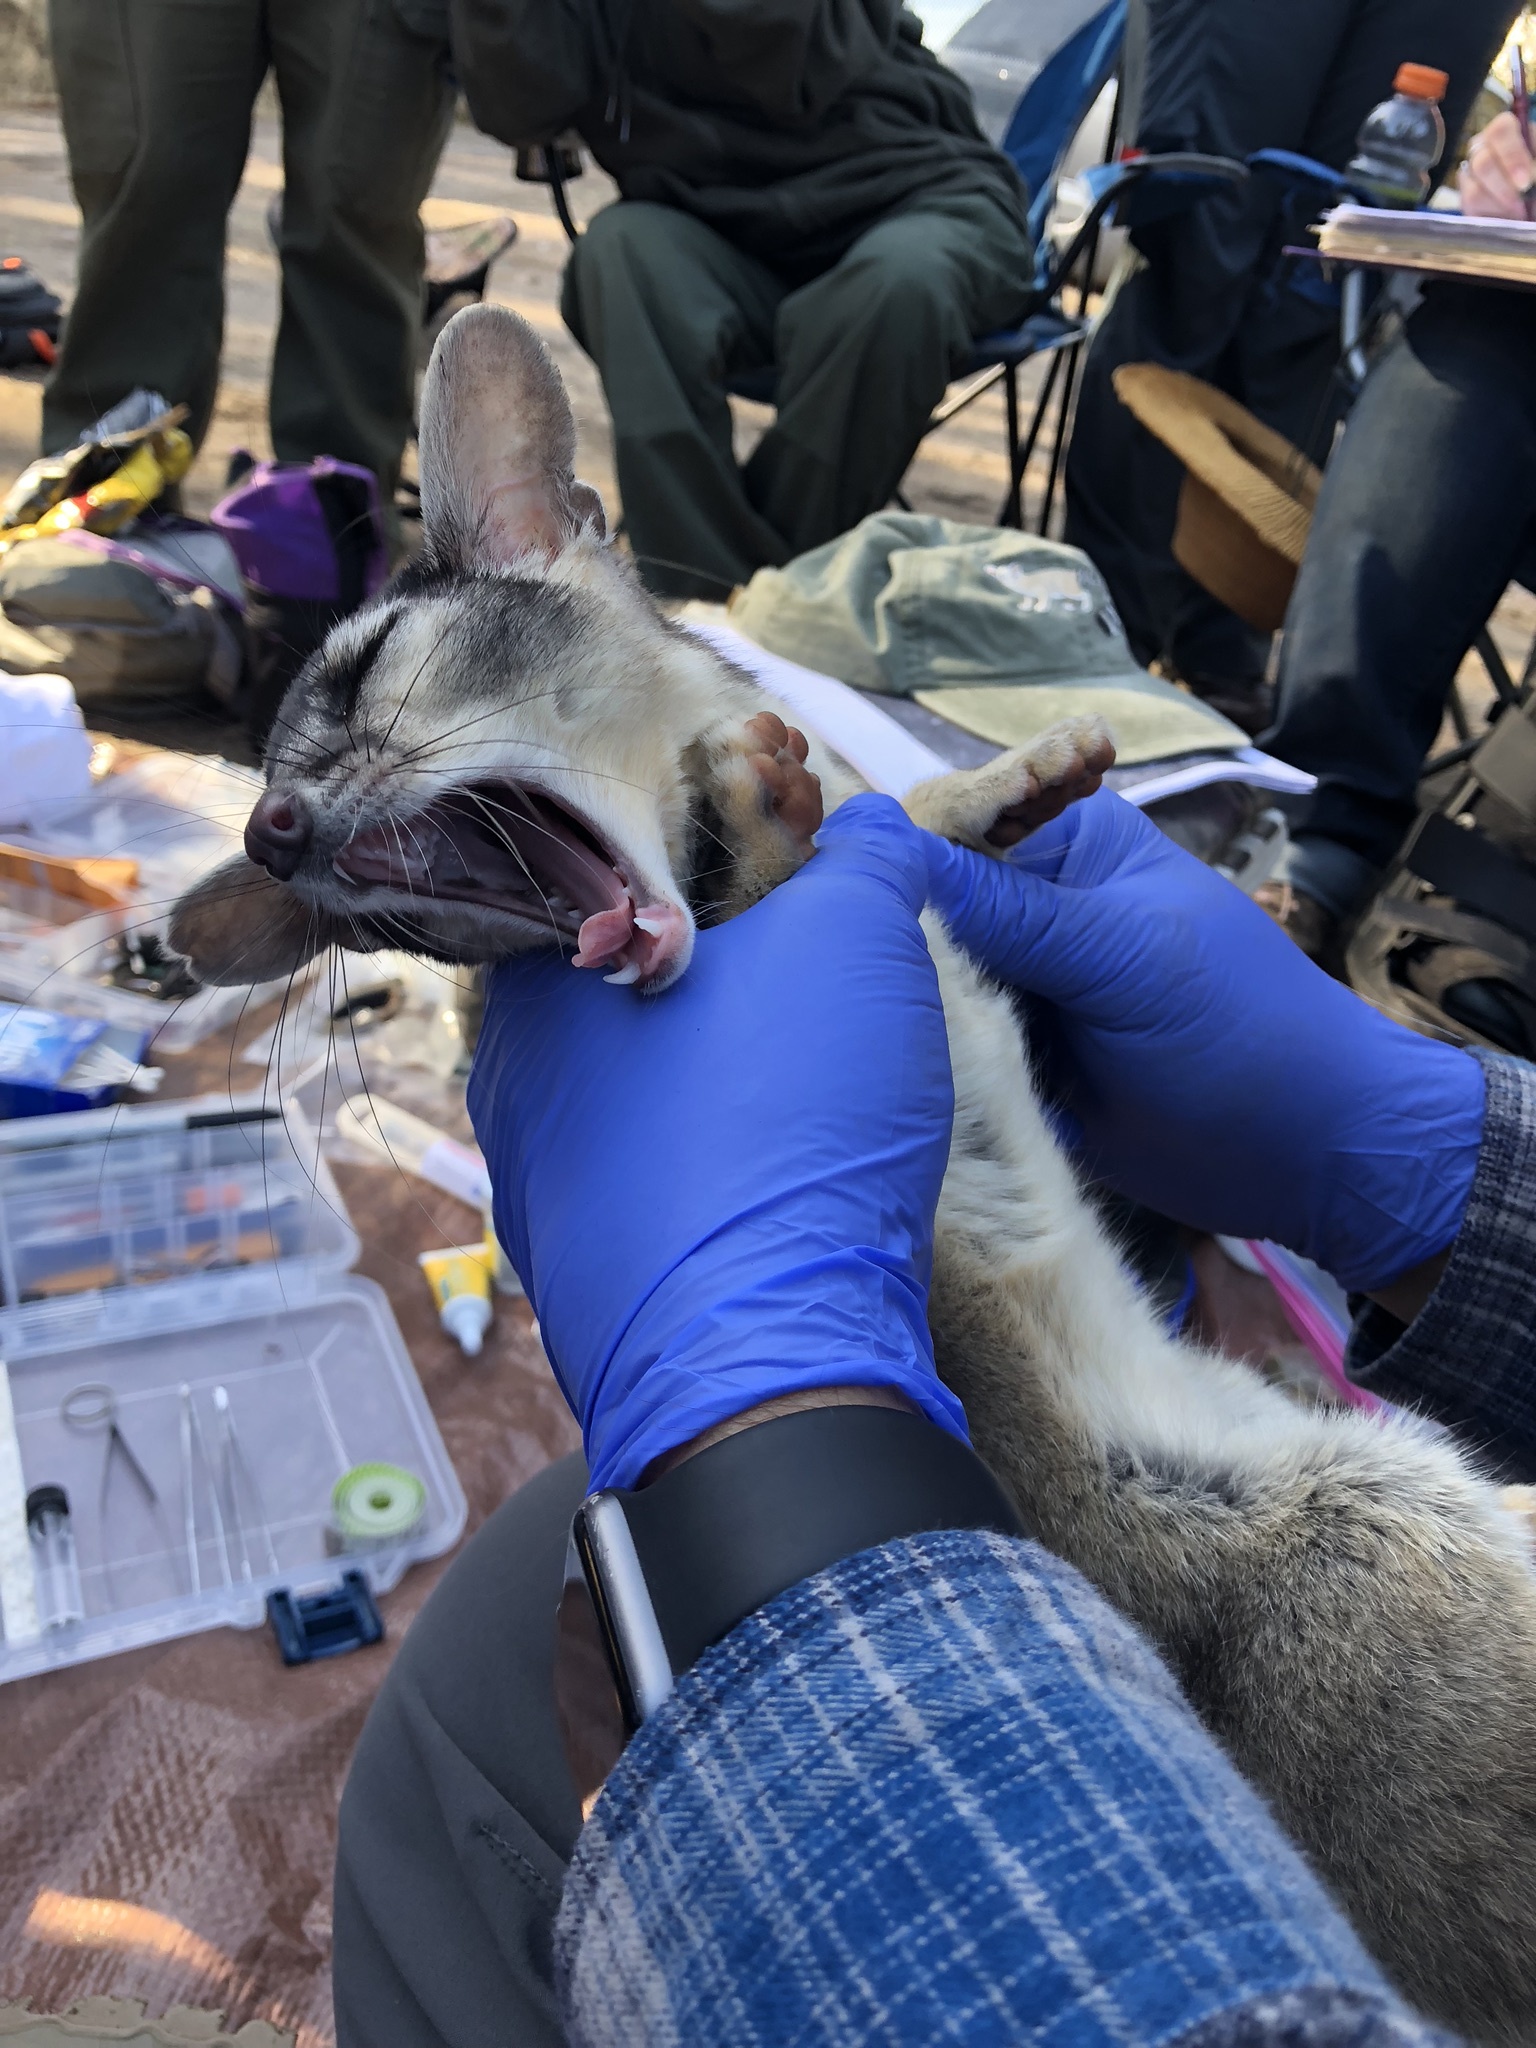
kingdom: Animalia
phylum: Chordata
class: Mammalia
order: Carnivora
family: Procyonidae
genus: Bassariscus
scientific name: Bassariscus astutus
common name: Ringtail
